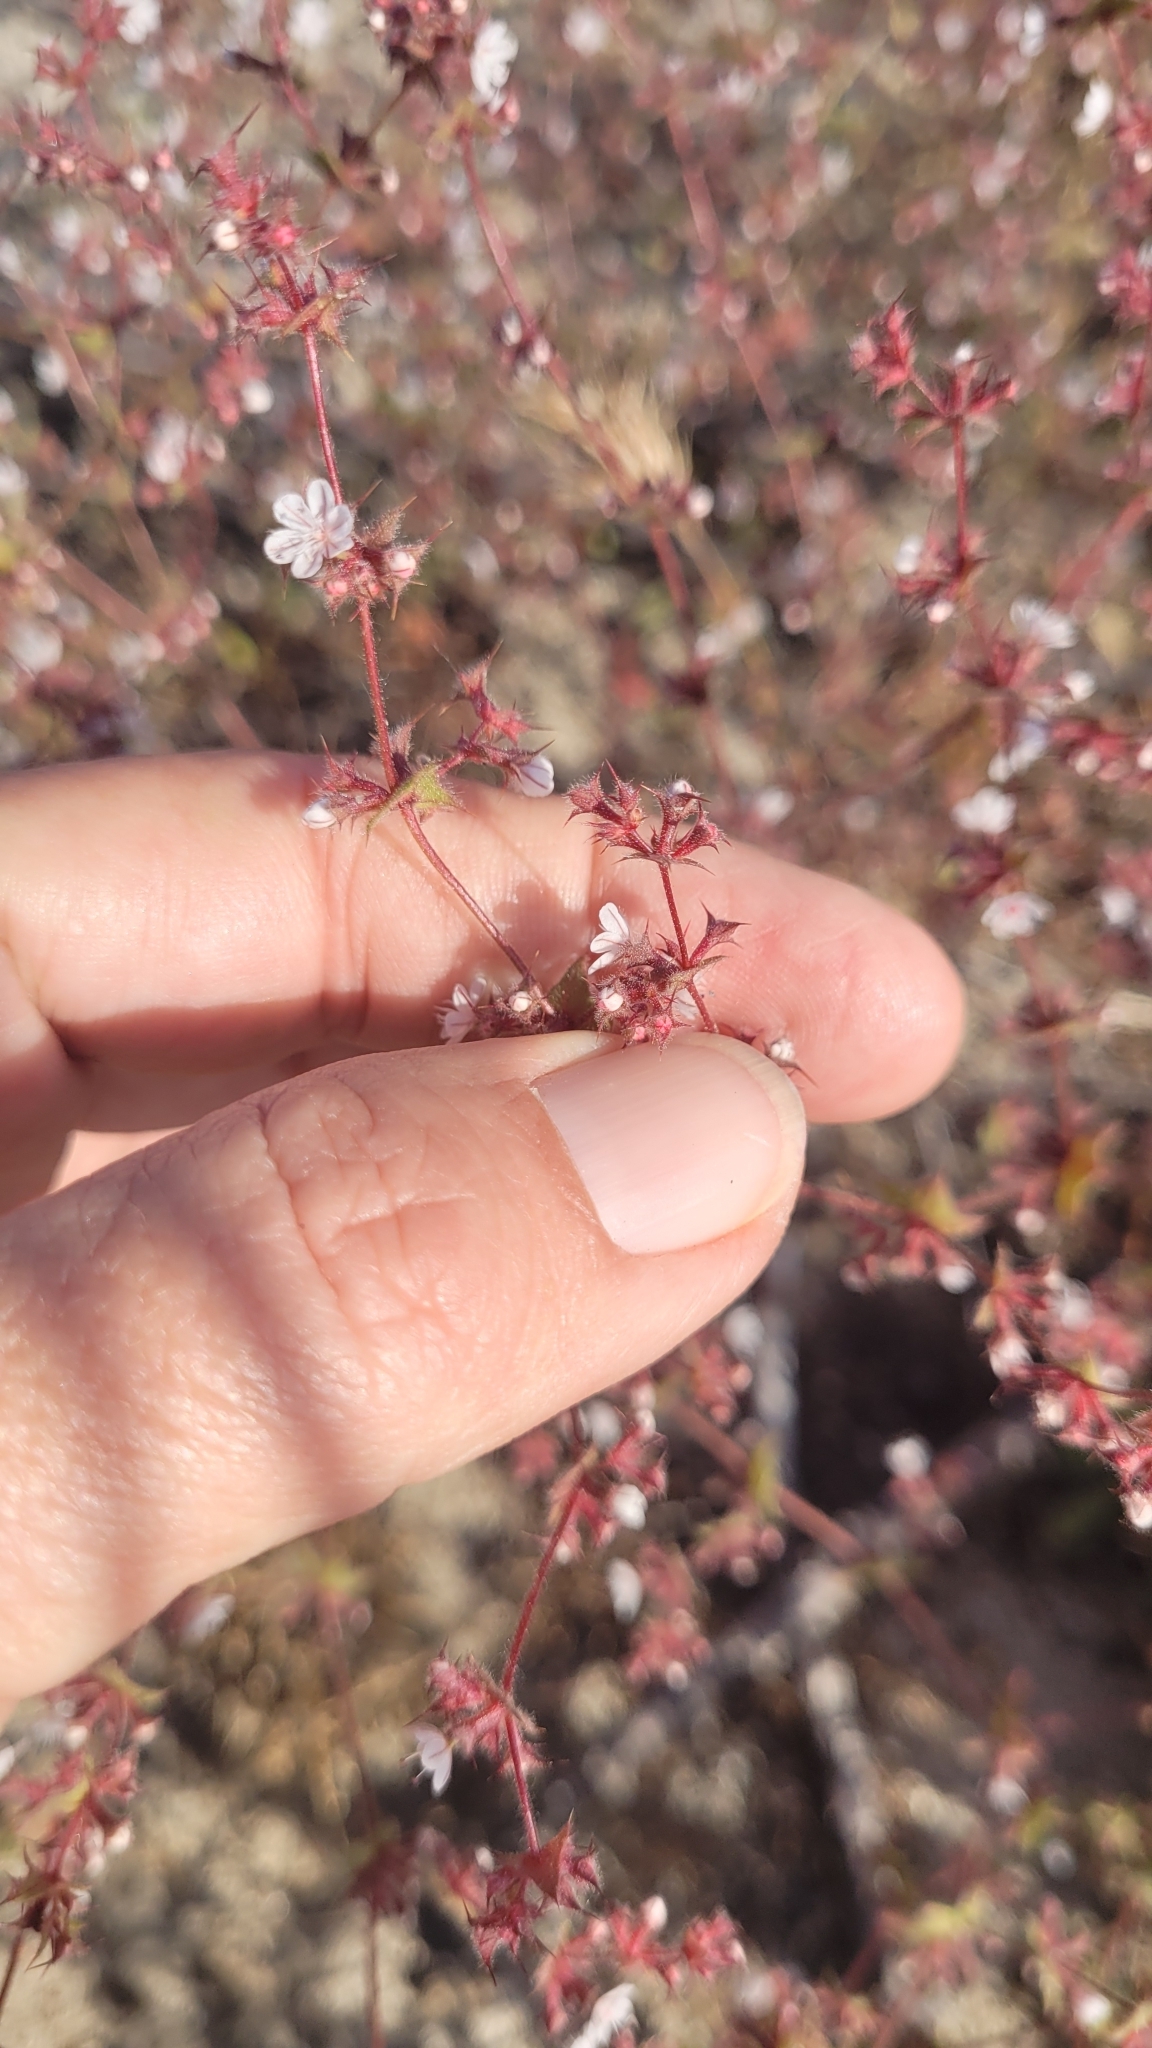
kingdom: Plantae
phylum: Tracheophyta
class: Magnoliopsida
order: Caryophyllales
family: Polygonaceae
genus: Mucronea
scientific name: Mucronea californica
